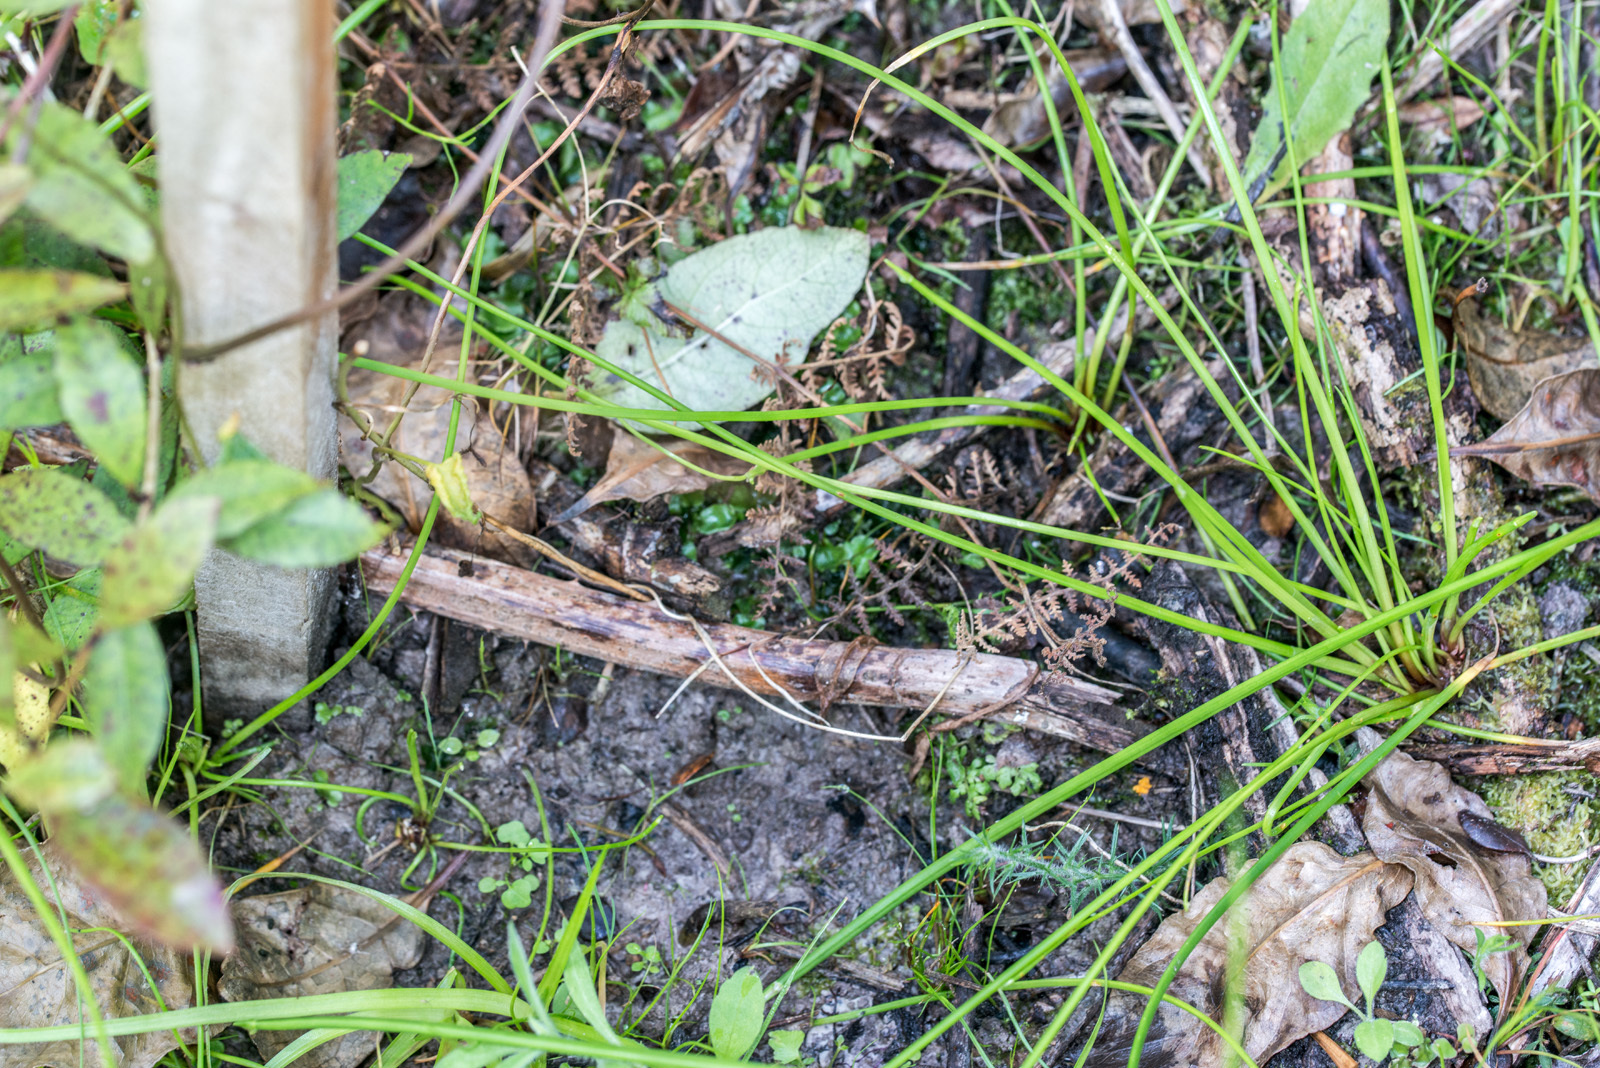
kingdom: Plantae
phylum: Tracheophyta
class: Liliopsida
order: Poales
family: Cyperaceae
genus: Isolepis
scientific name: Isolepis prolifera
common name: Proliferating bulrush
